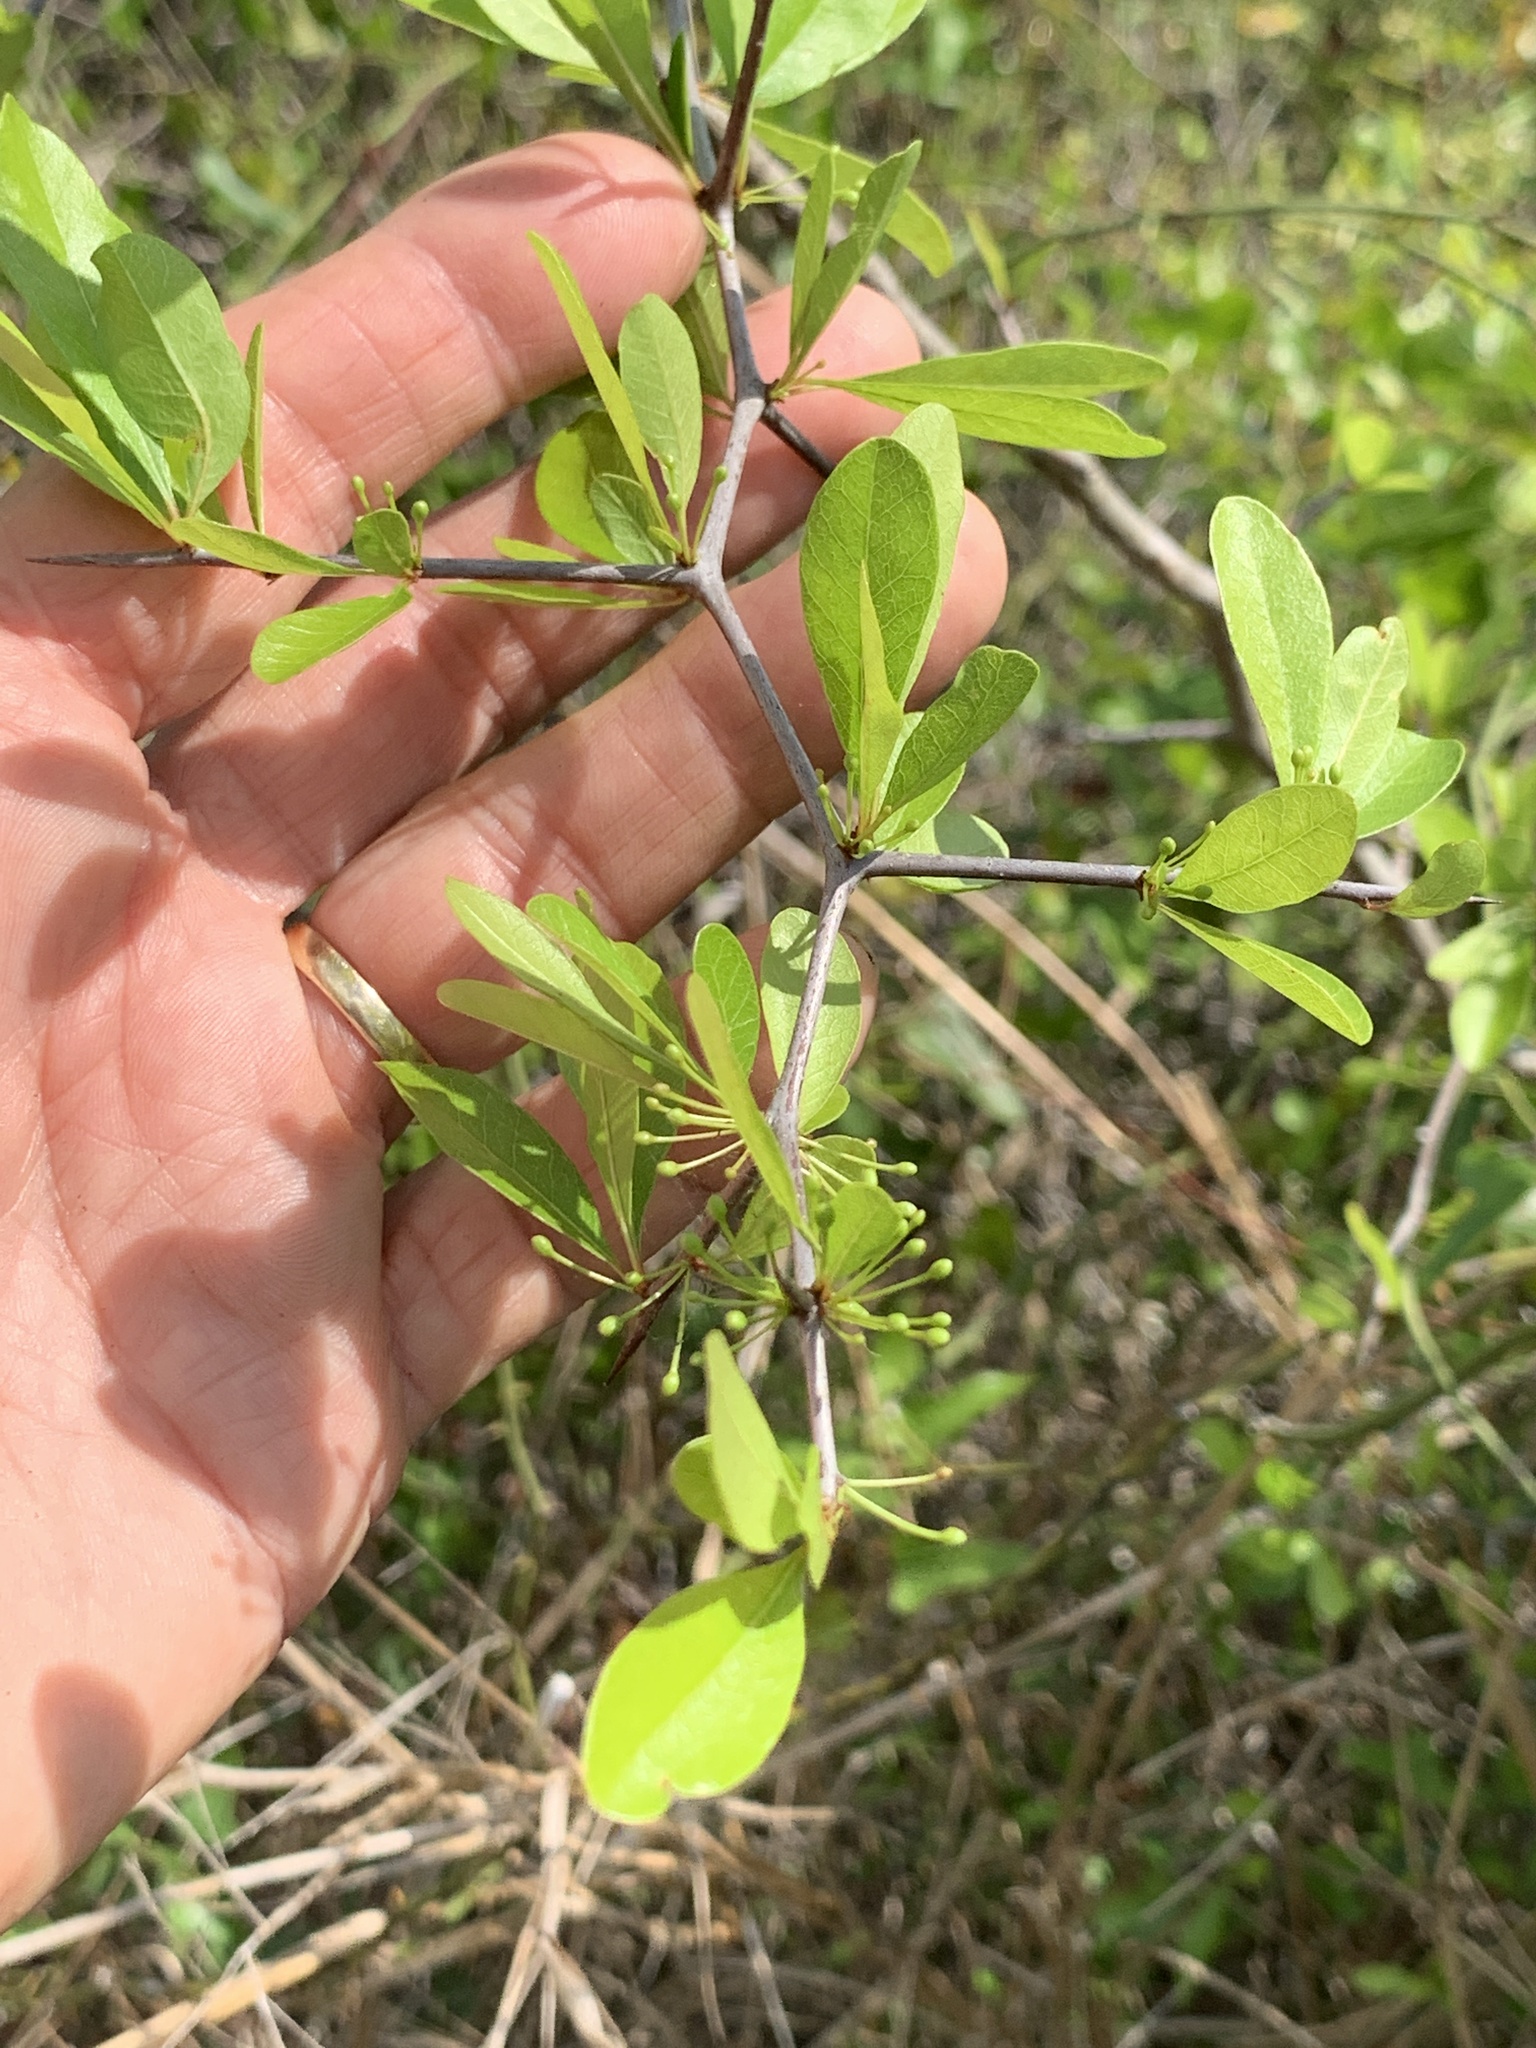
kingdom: Plantae
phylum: Tracheophyta
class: Magnoliopsida
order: Ericales
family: Sapotaceae
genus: Sideroxylon
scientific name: Sideroxylon celastrinum
